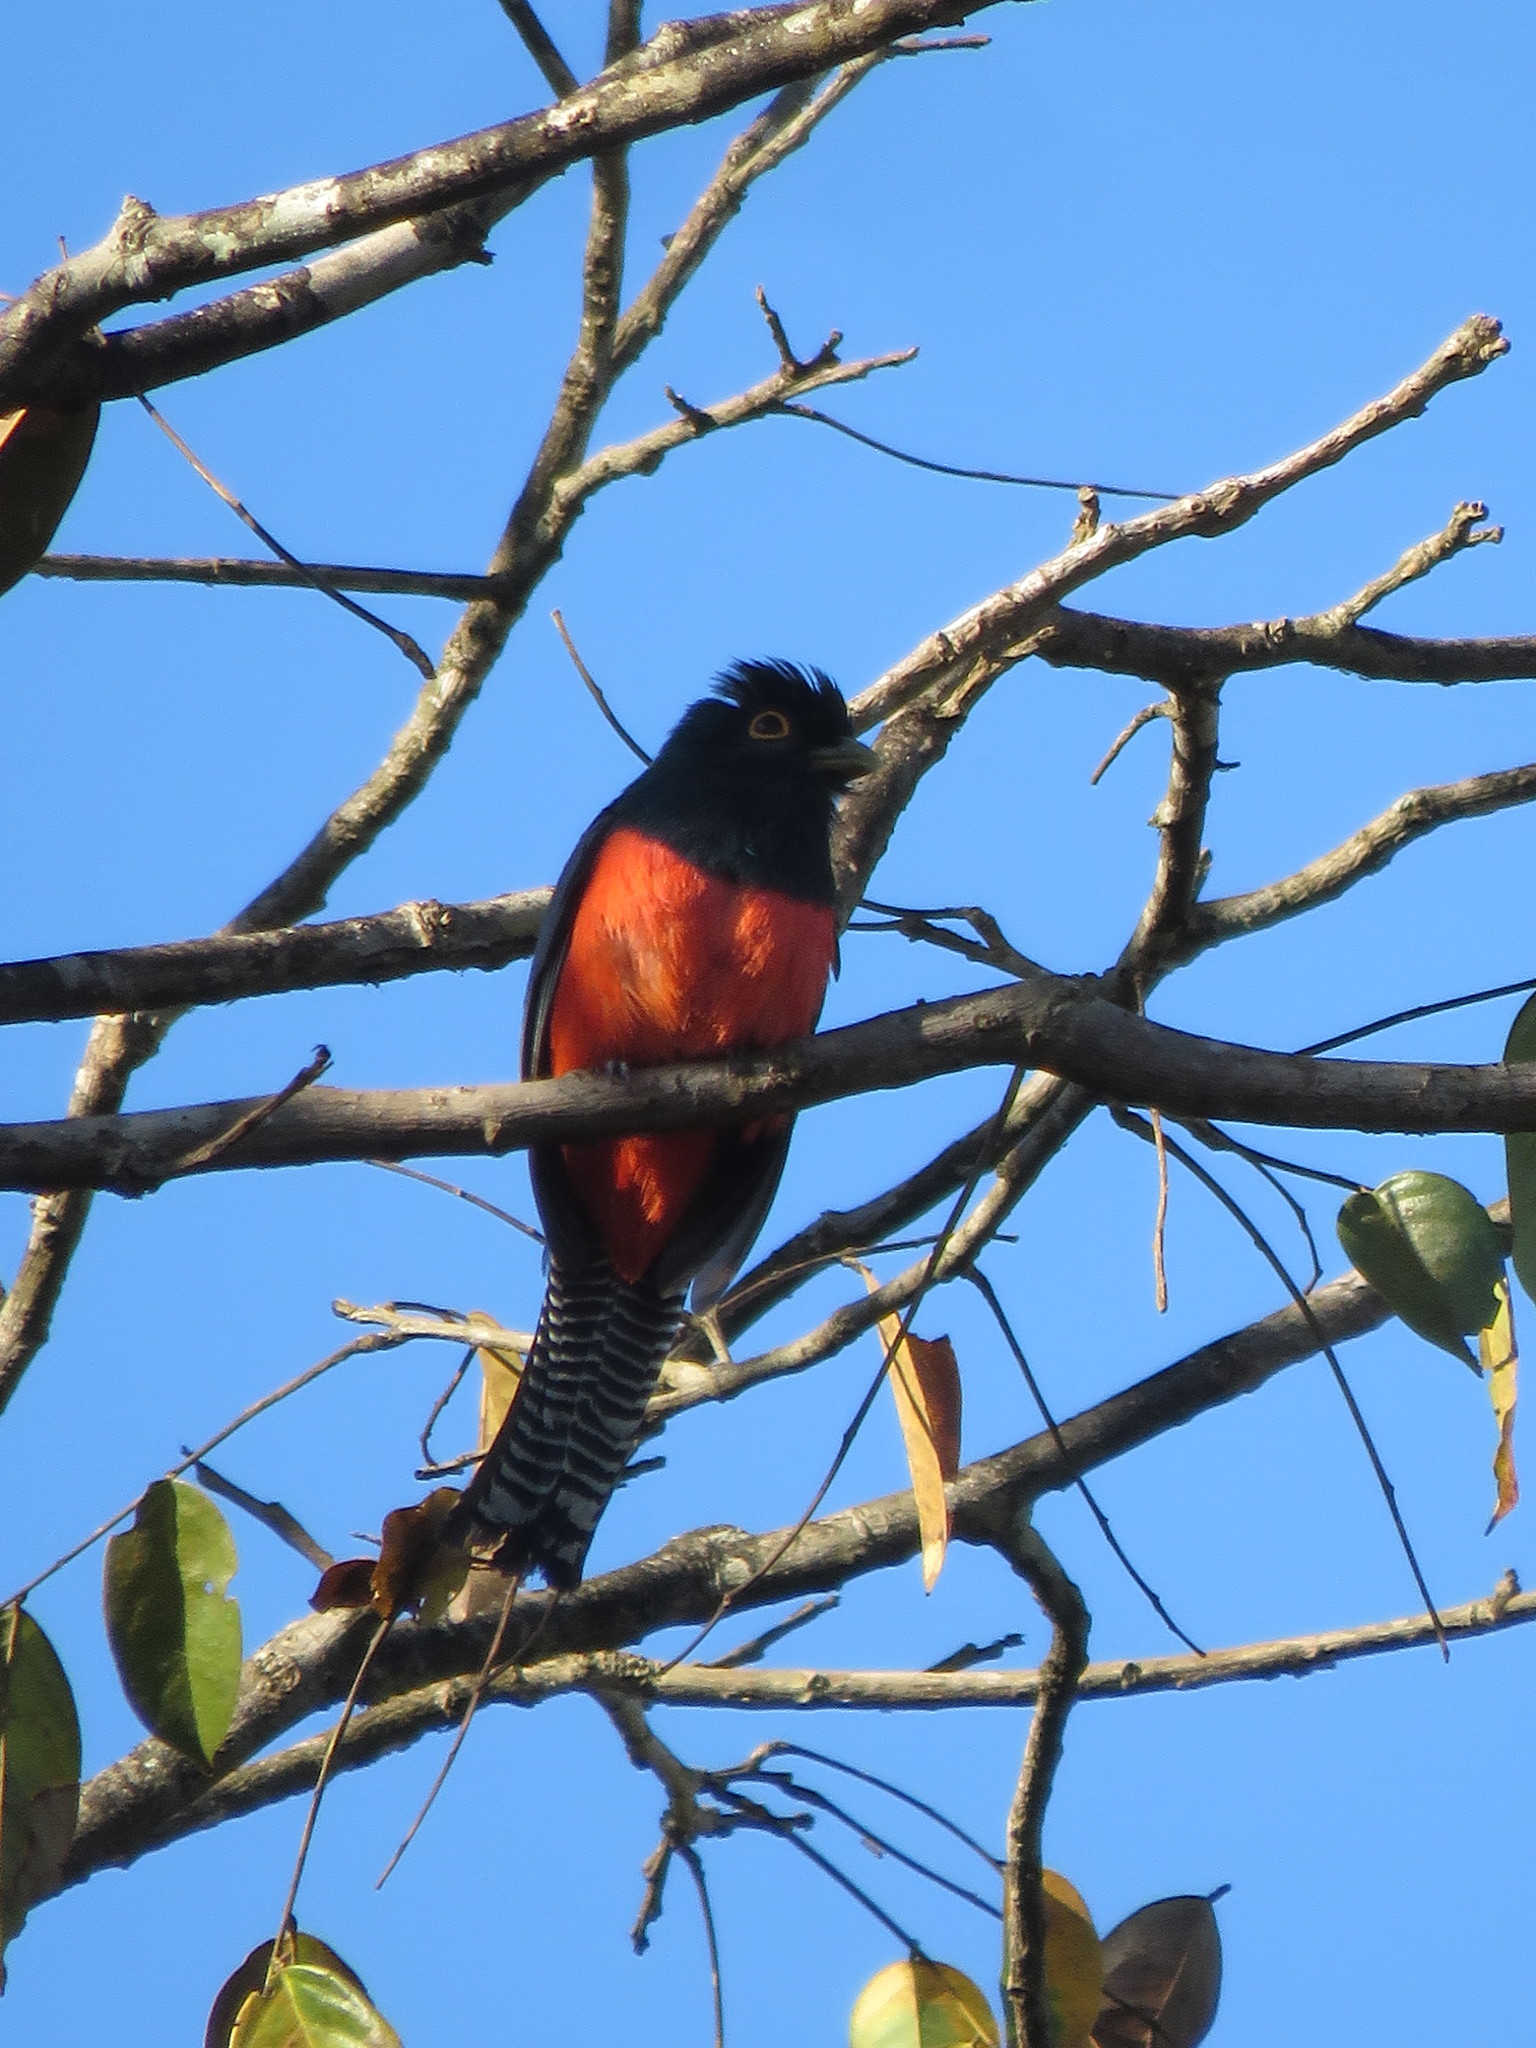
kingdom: Animalia
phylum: Chordata
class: Aves
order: Trogoniformes
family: Trogonidae
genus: Trogon
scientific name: Trogon curucui
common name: Blue-crowned trogon
